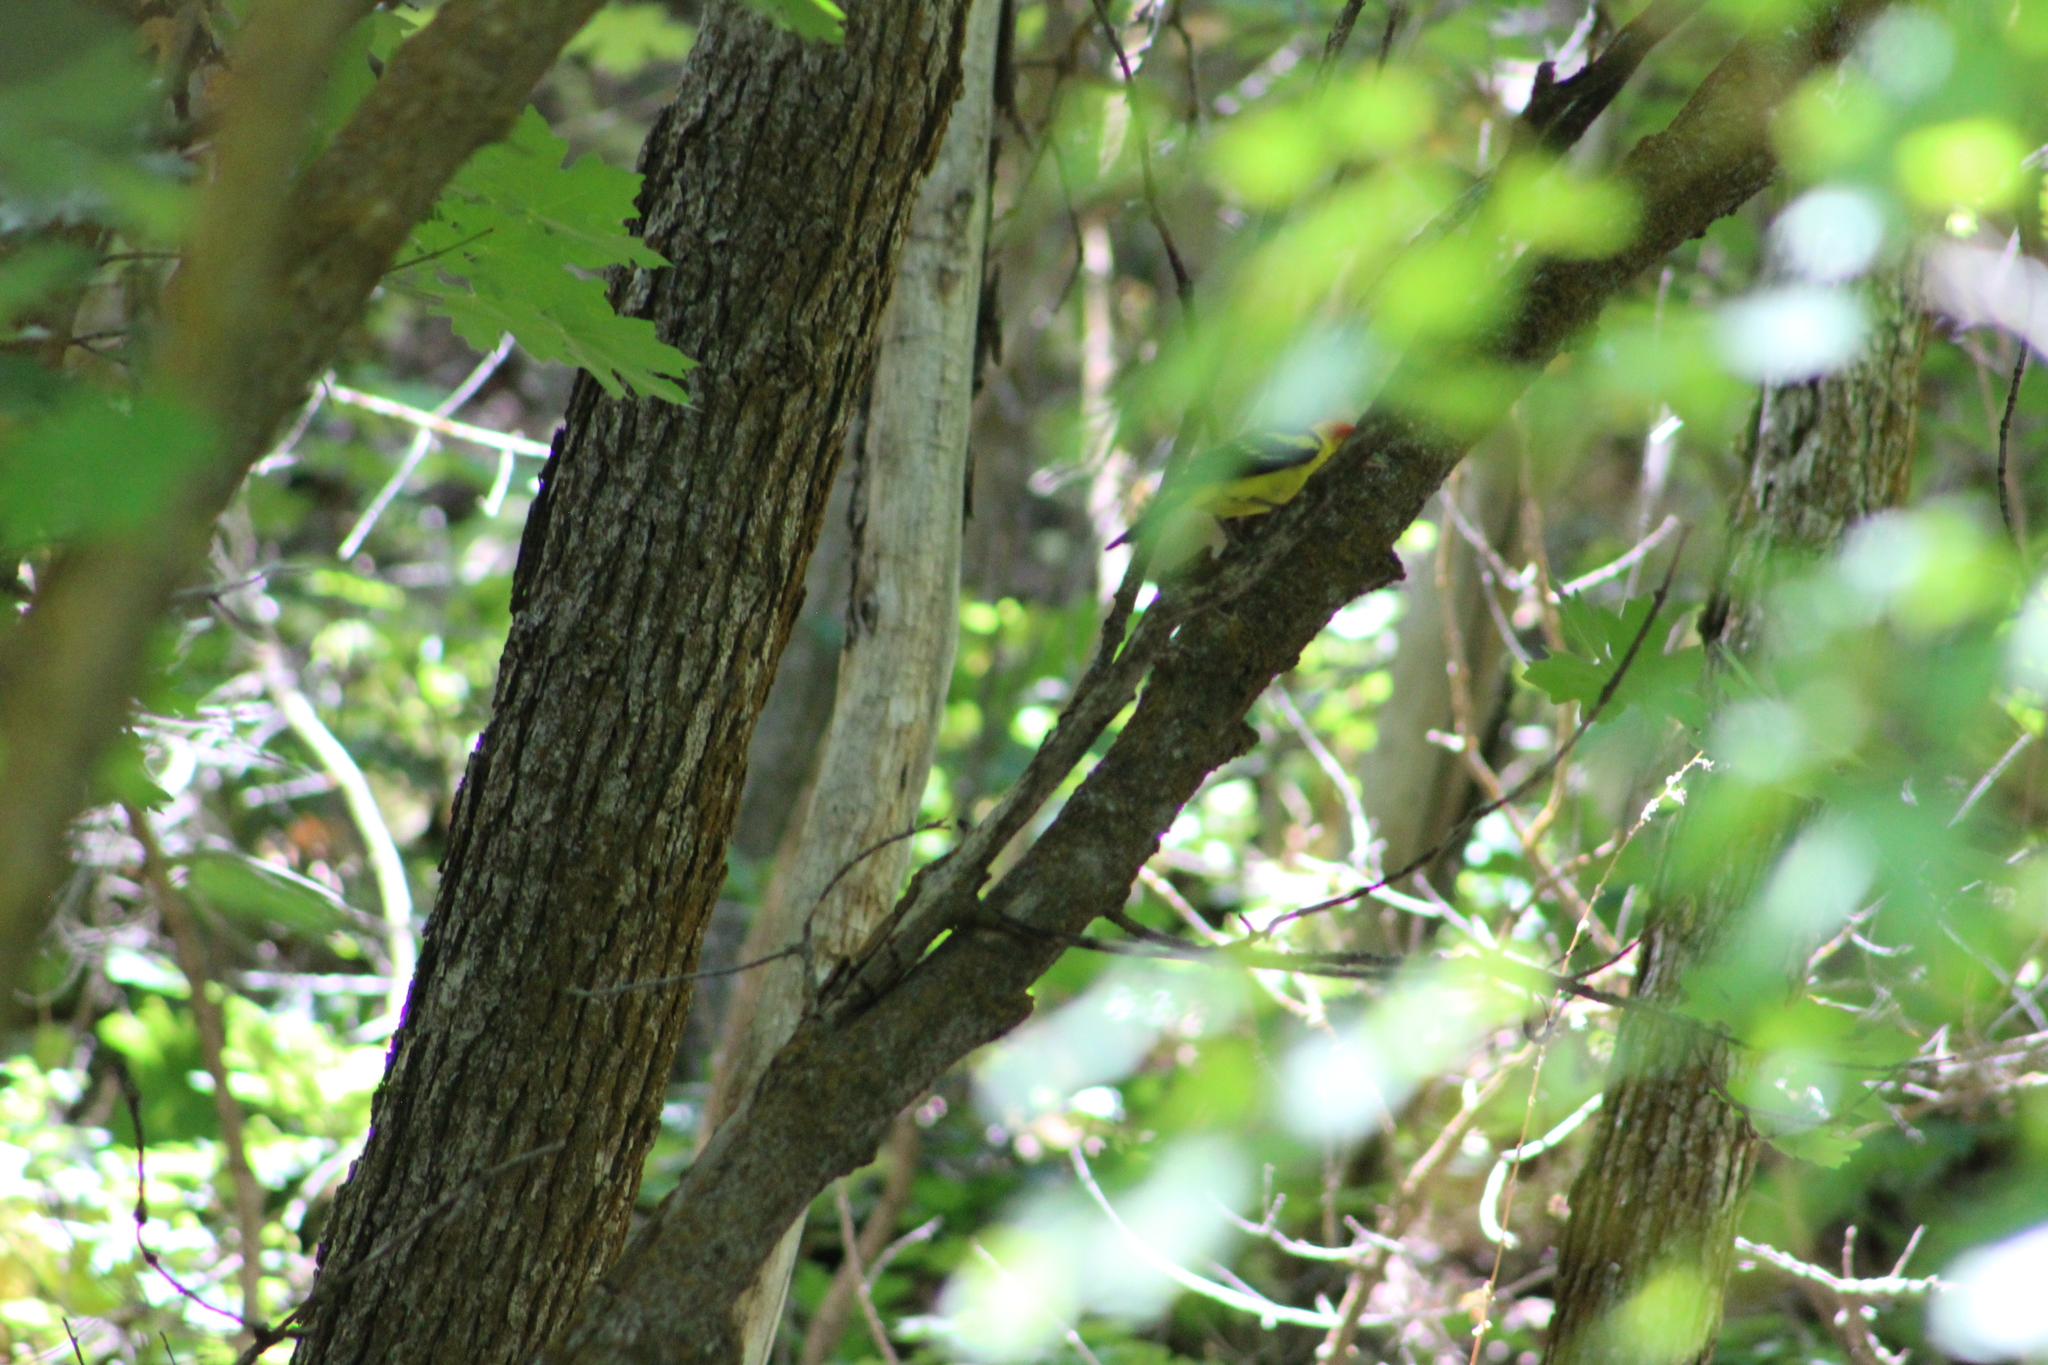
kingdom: Animalia
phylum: Chordata
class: Aves
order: Passeriformes
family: Cardinalidae
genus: Piranga
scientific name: Piranga ludoviciana
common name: Western tanager
